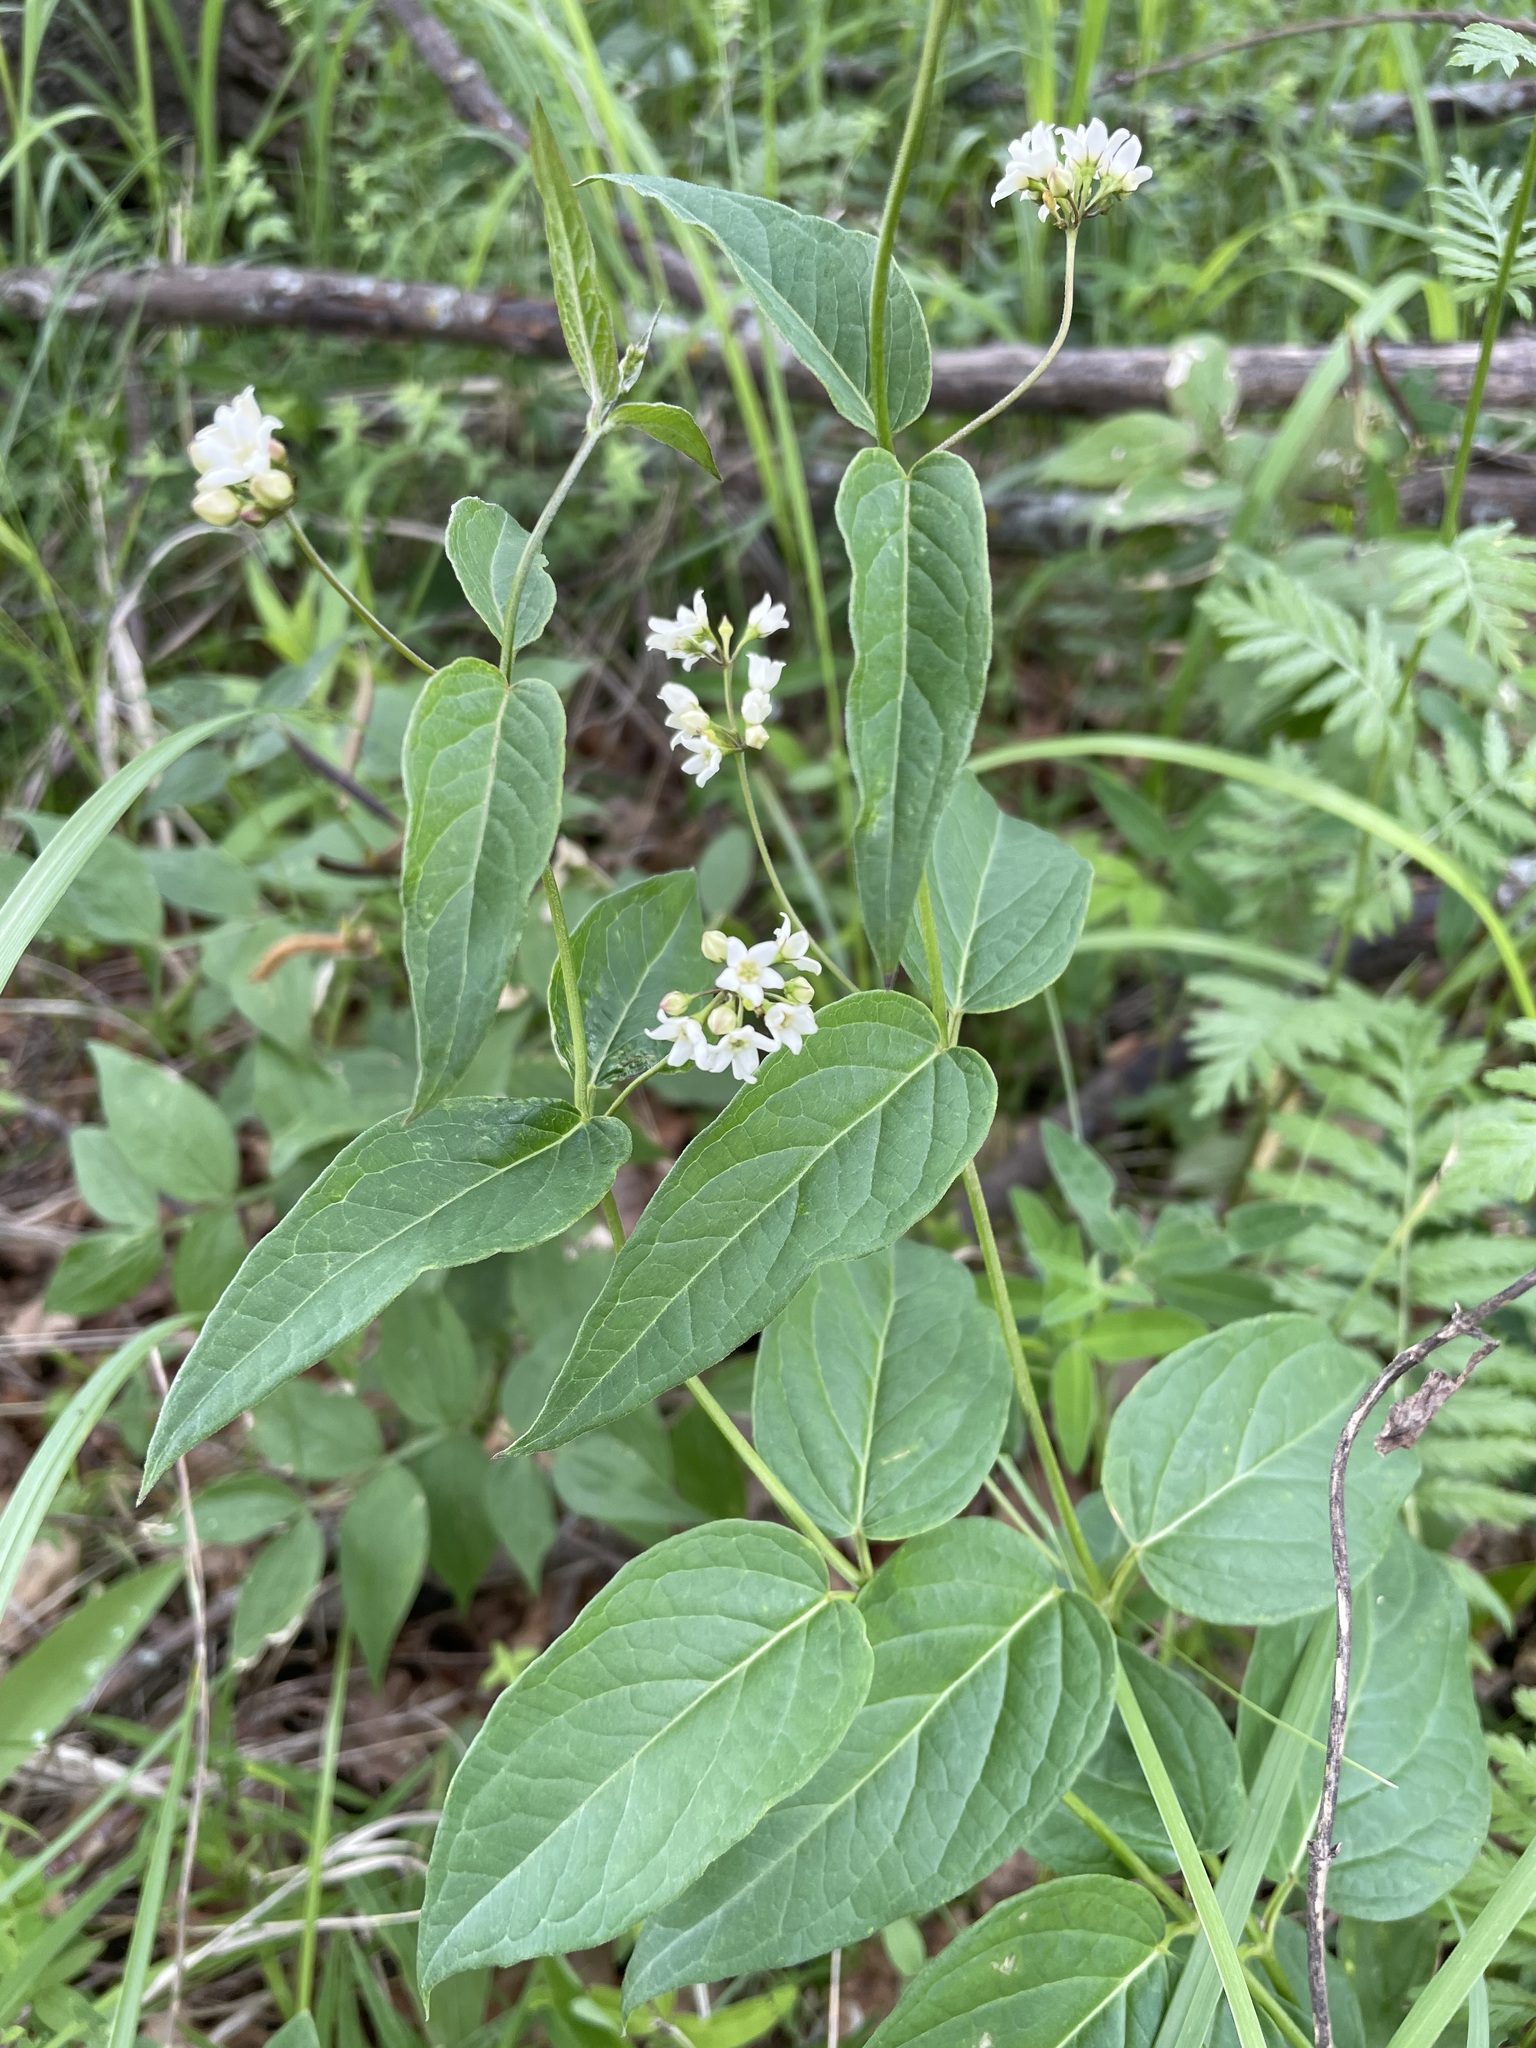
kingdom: Plantae
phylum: Tracheophyta
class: Magnoliopsida
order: Gentianales
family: Apocynaceae
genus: Vincetoxicum
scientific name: Vincetoxicum hirundinaria
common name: White swallowwort
